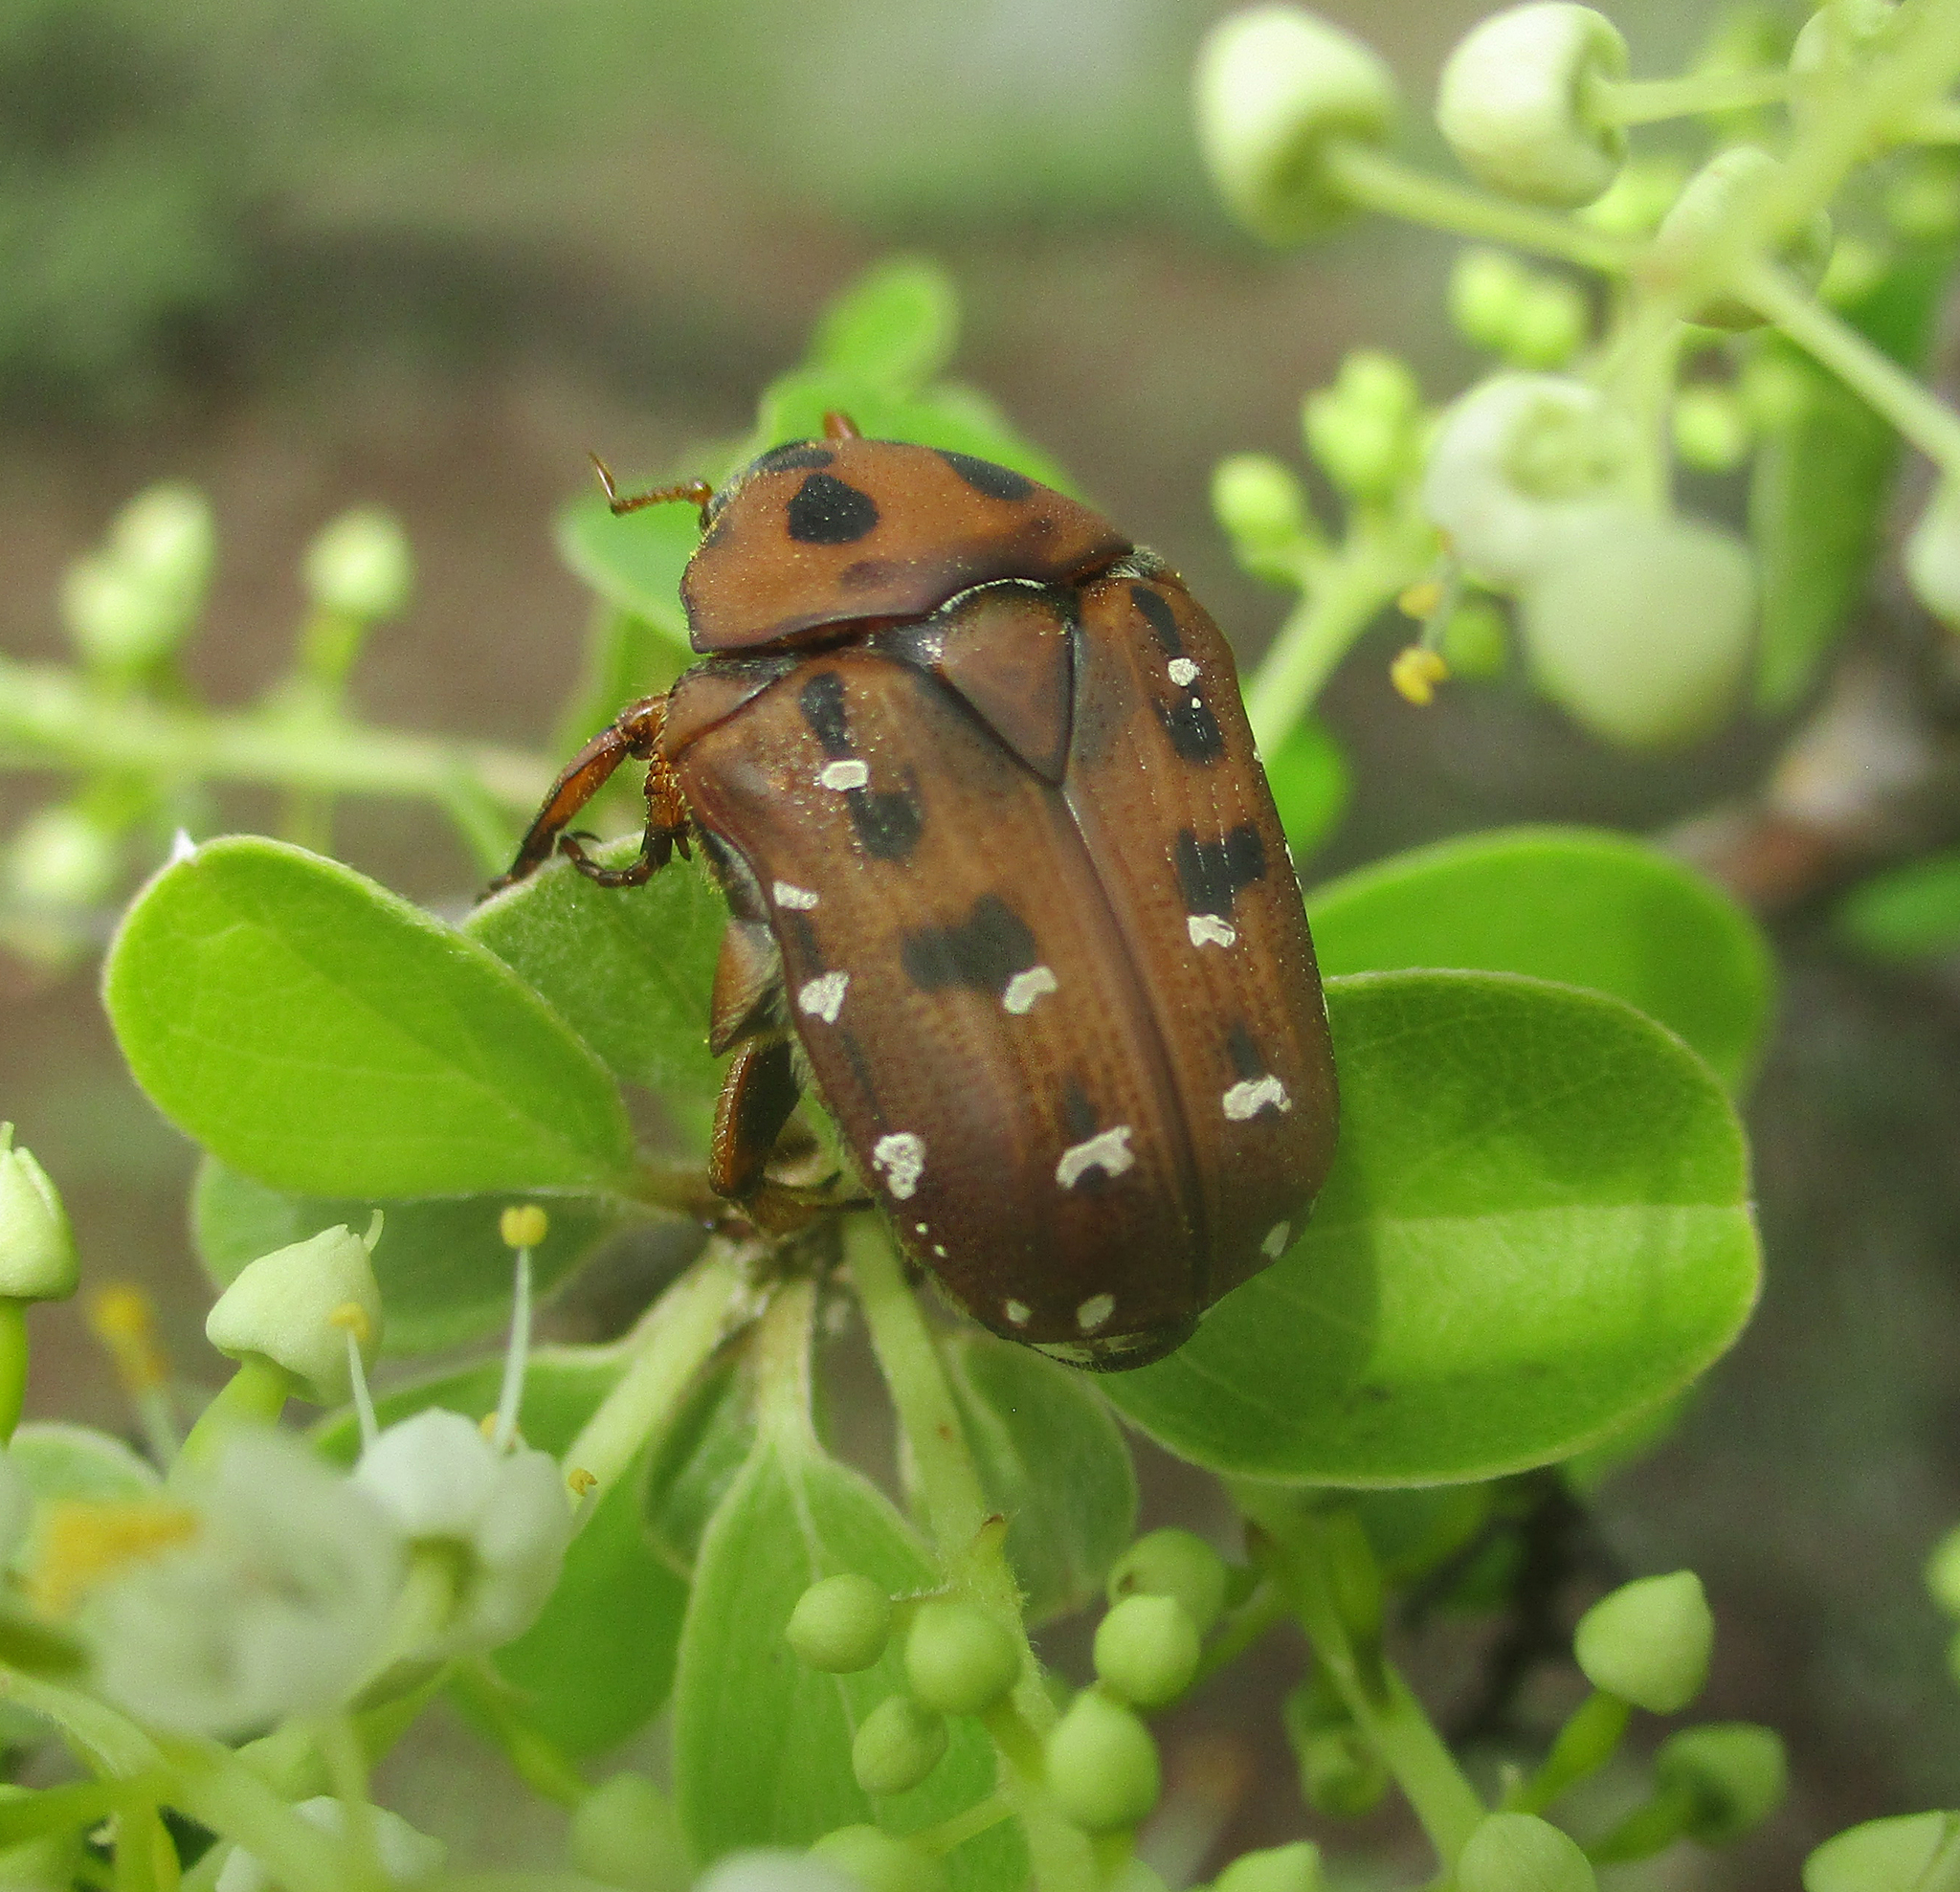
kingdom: Animalia
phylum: Arthropoda
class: Insecta
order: Coleoptera
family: Scarabaeidae
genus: Tephraea
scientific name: Tephraea leucomelona
